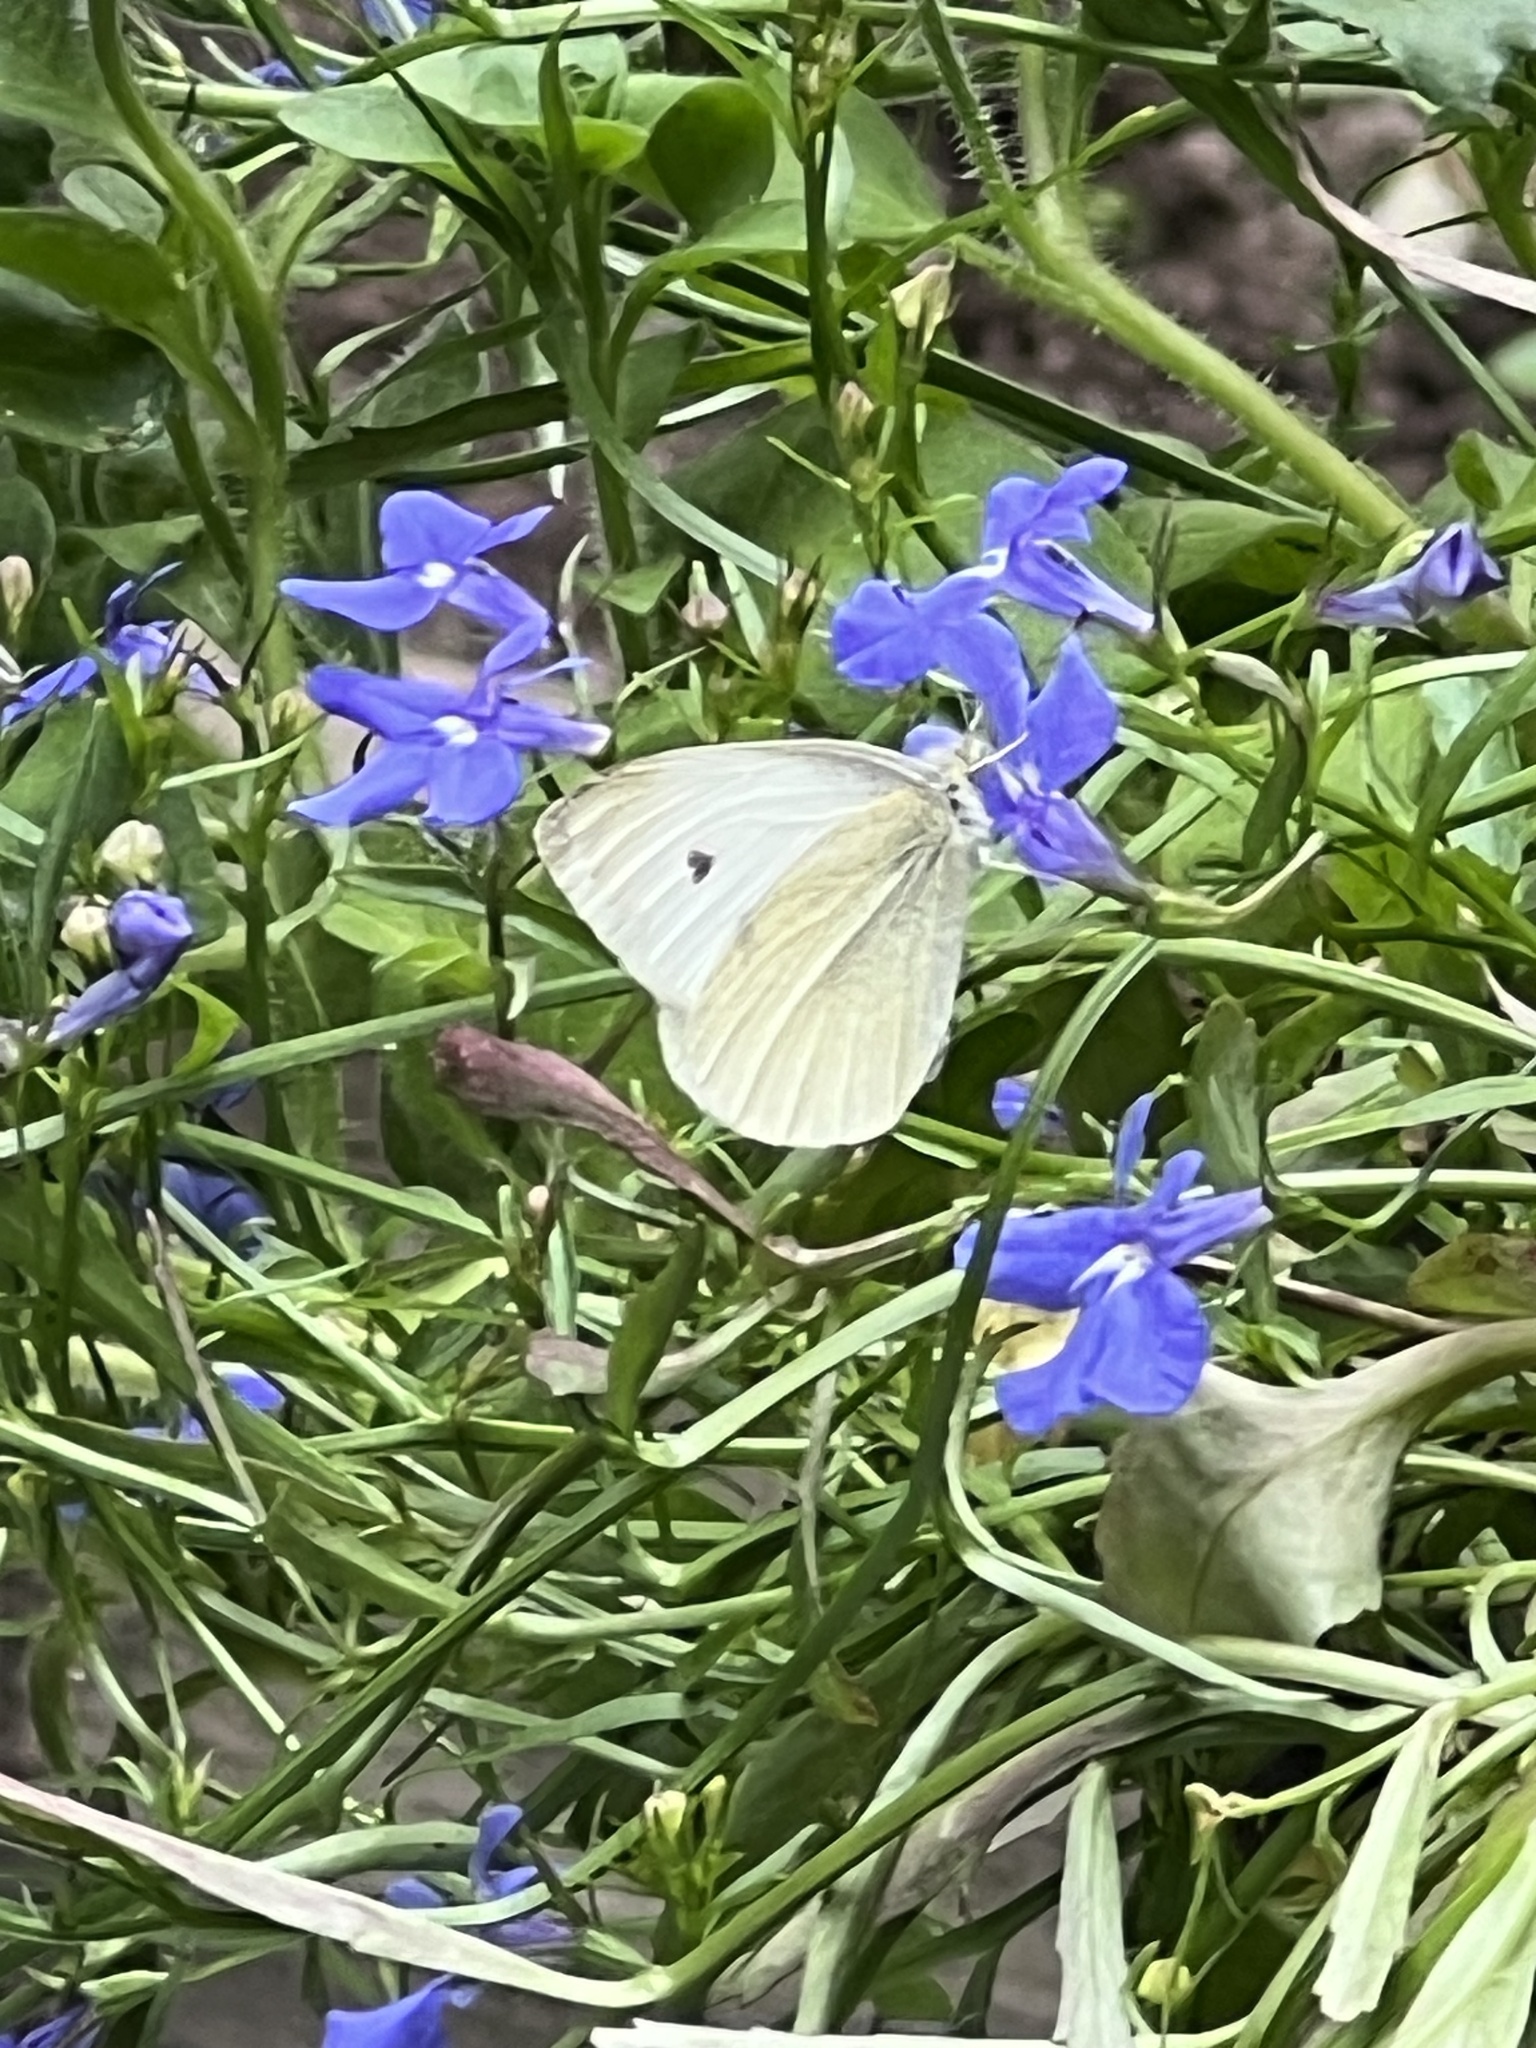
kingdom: Animalia
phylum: Arthropoda
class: Insecta
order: Lepidoptera
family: Pieridae
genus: Pieris
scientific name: Pieris rapae
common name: Small white
